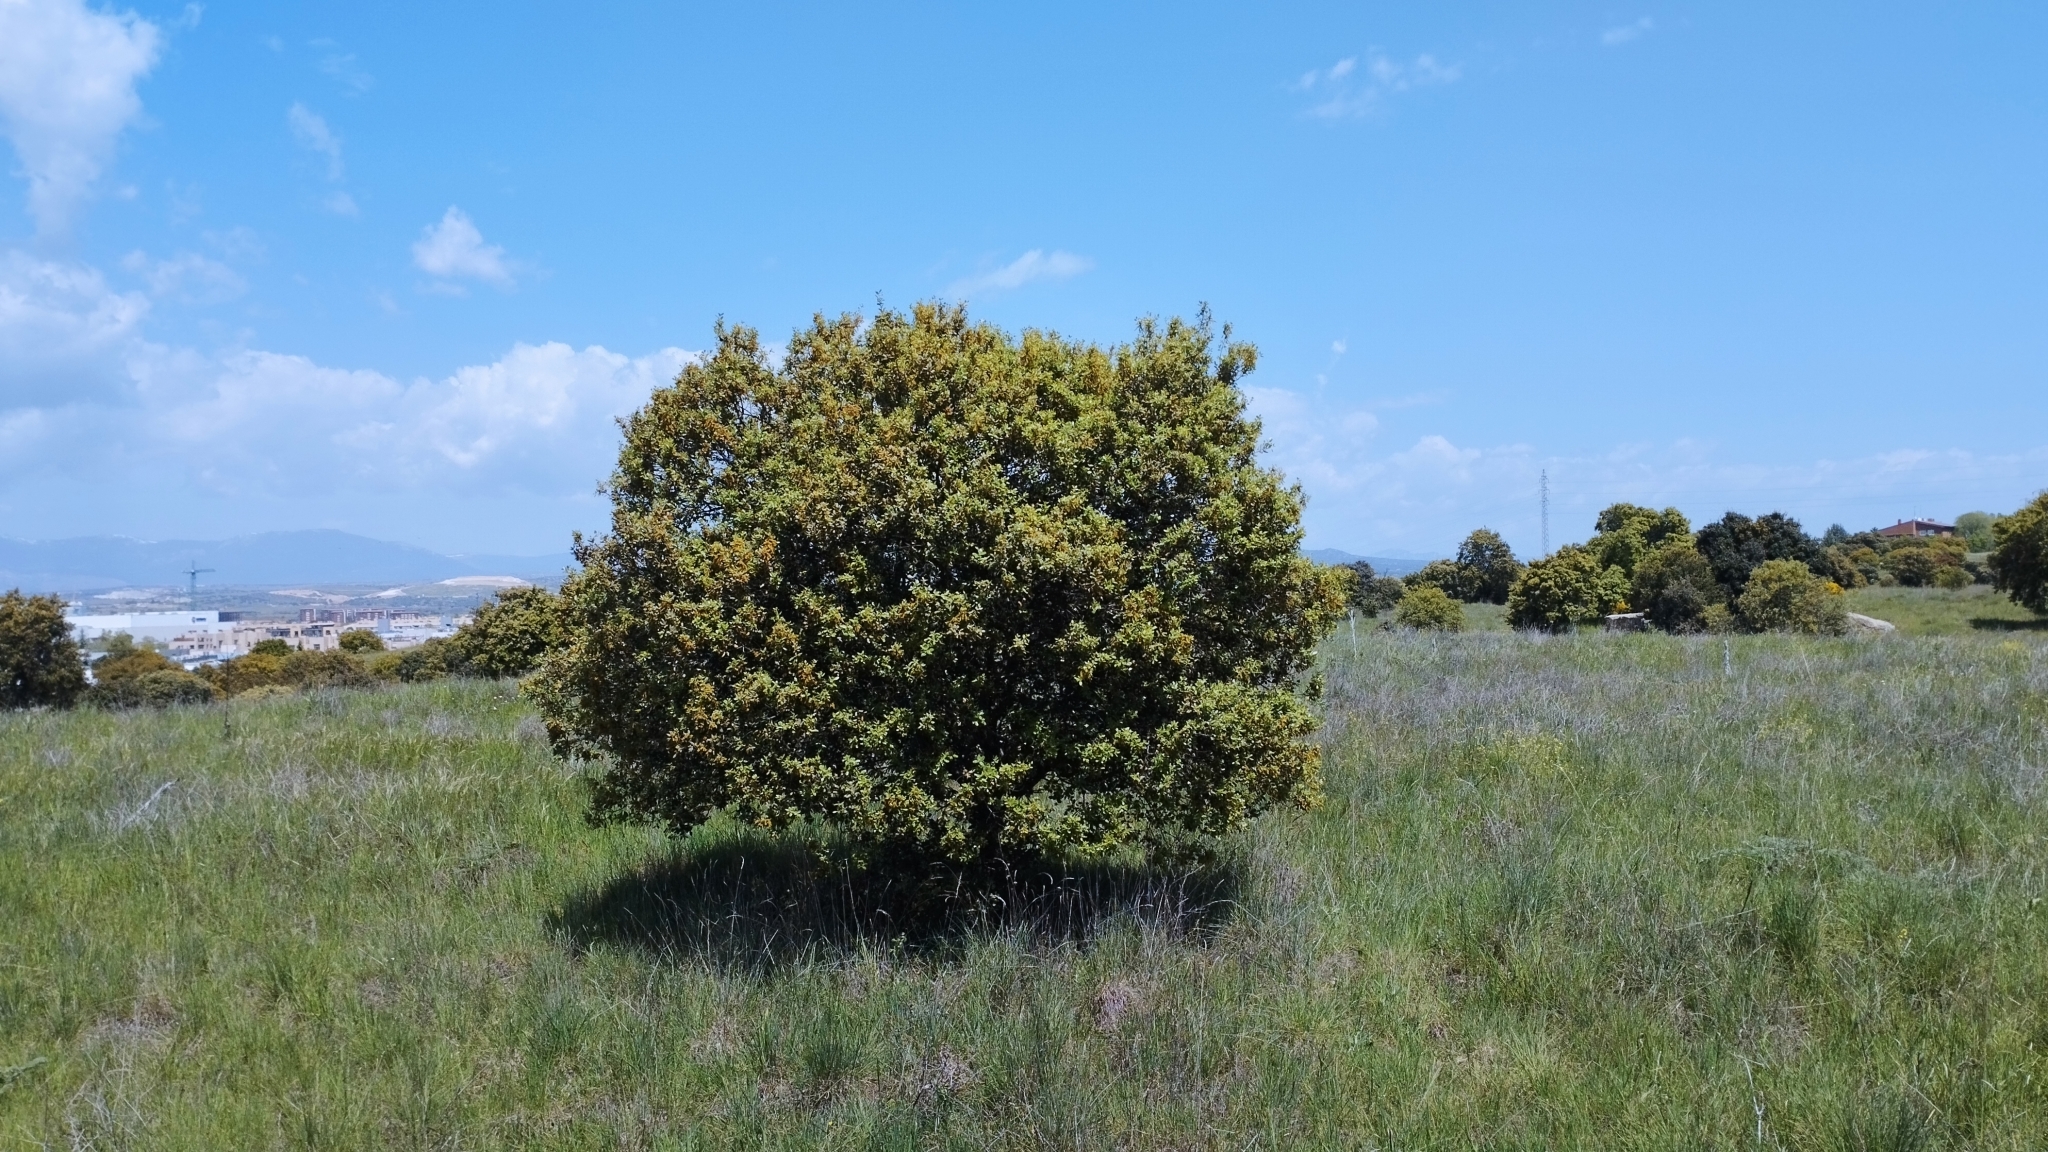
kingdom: Plantae
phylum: Tracheophyta
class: Magnoliopsida
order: Fagales
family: Fagaceae
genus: Quercus
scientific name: Quercus rotundifolia
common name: Holm oak
